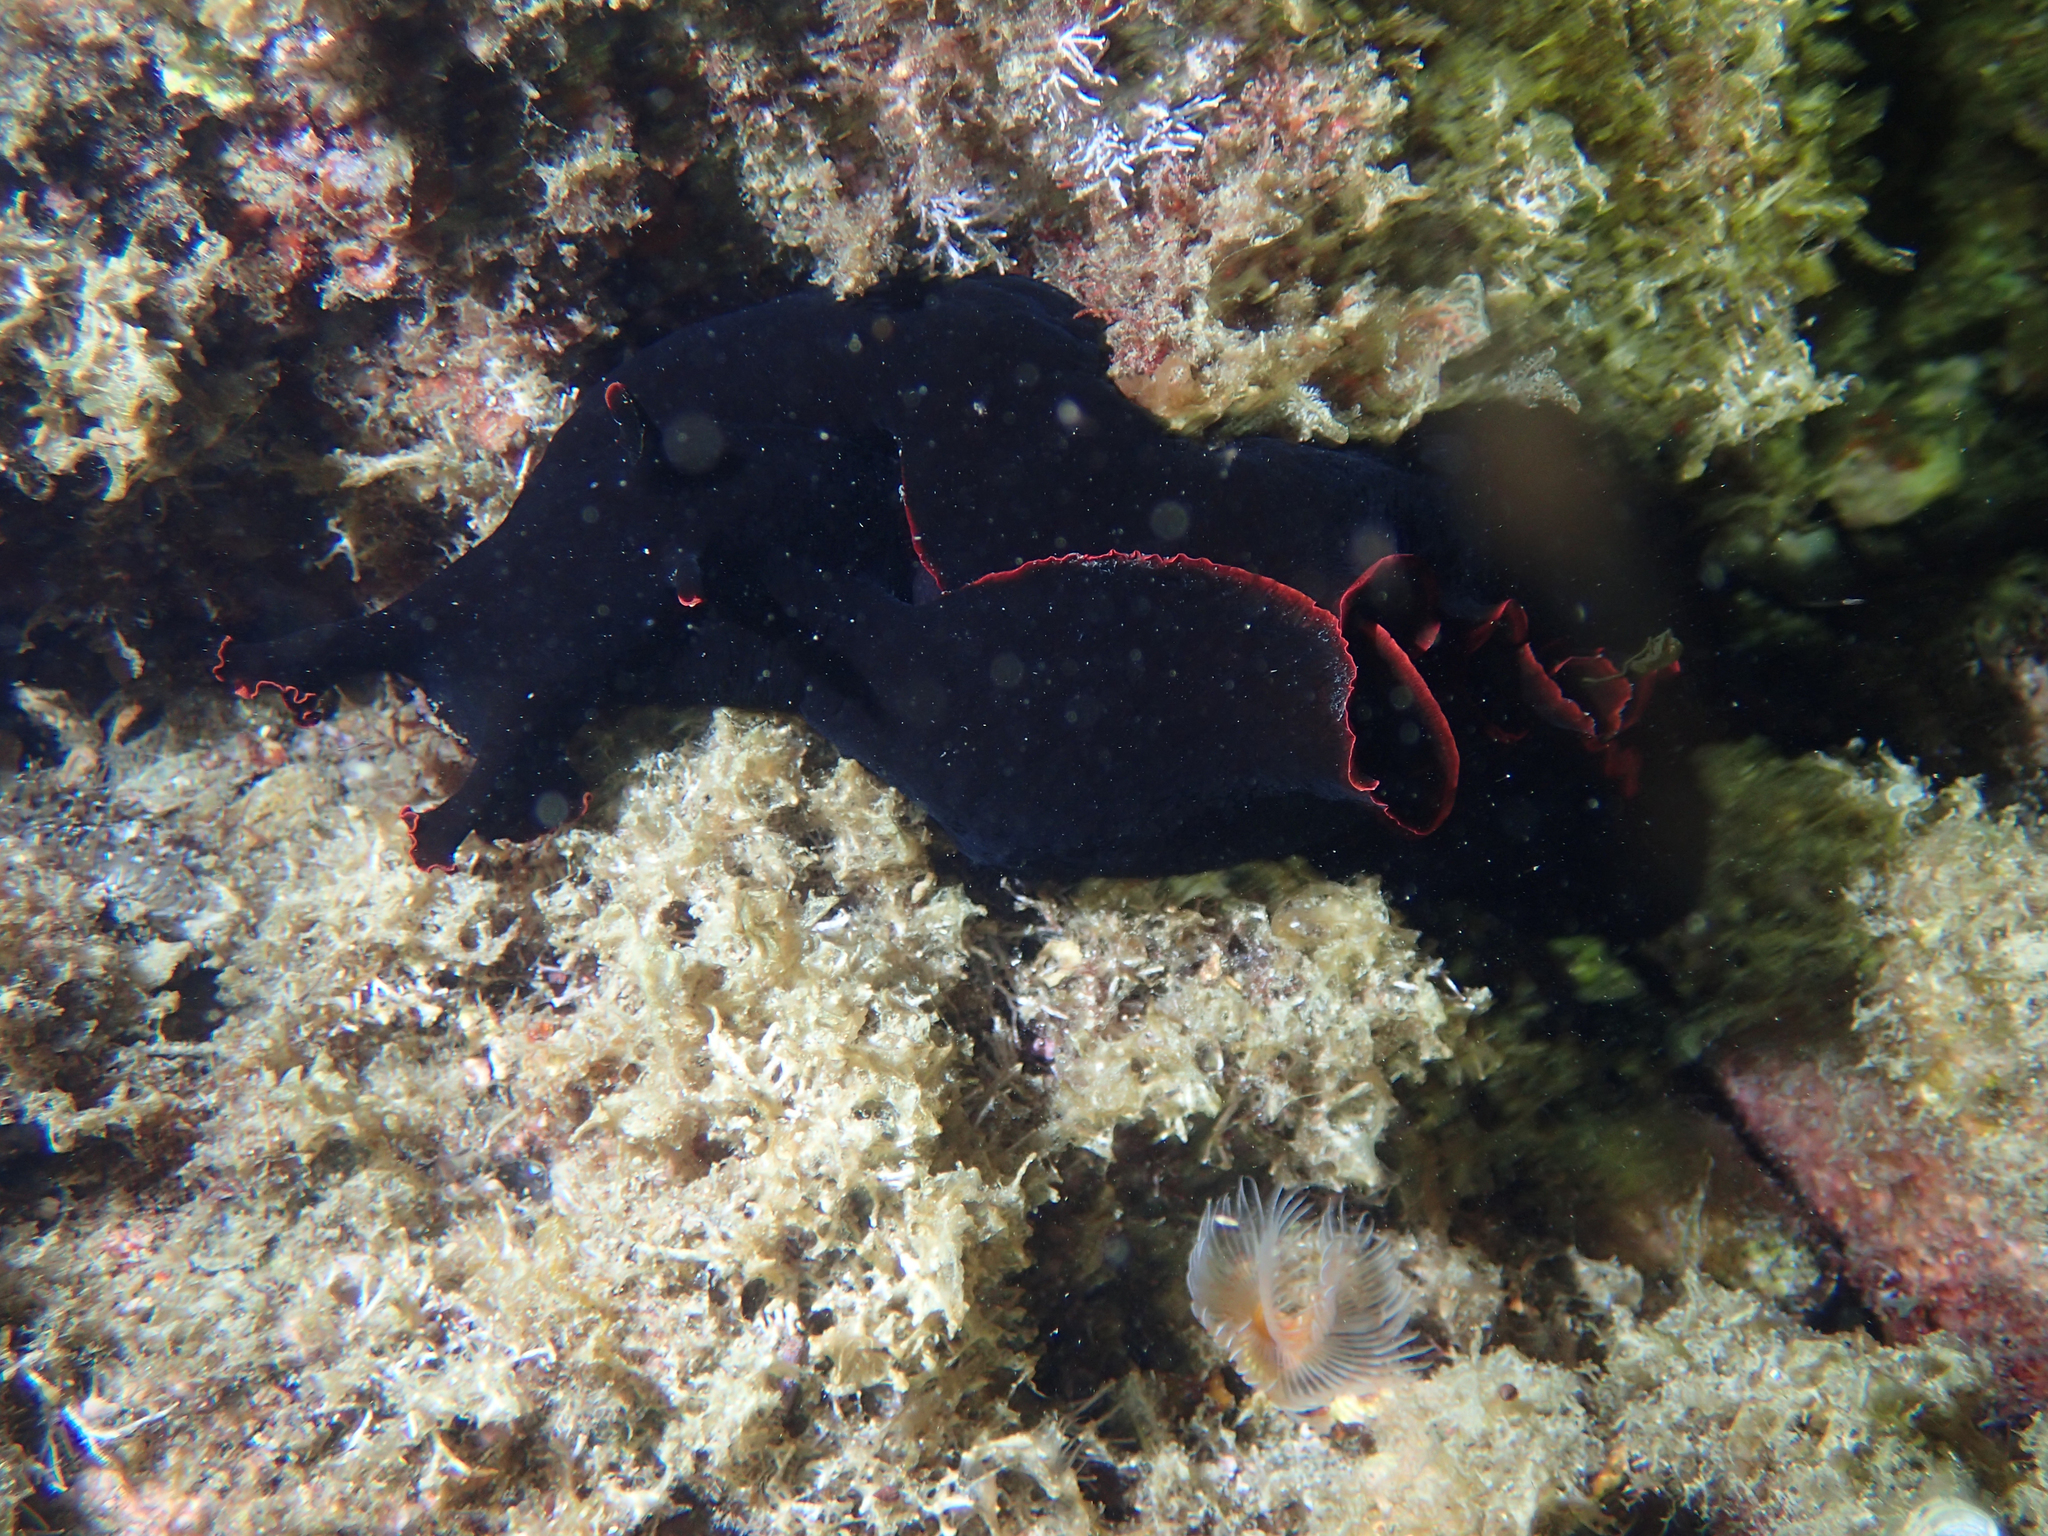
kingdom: Animalia
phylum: Mollusca
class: Gastropoda
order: Aplysiida
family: Aplysiidae
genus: Aplysia
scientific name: Aplysia fasciata
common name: Banded sea hare
